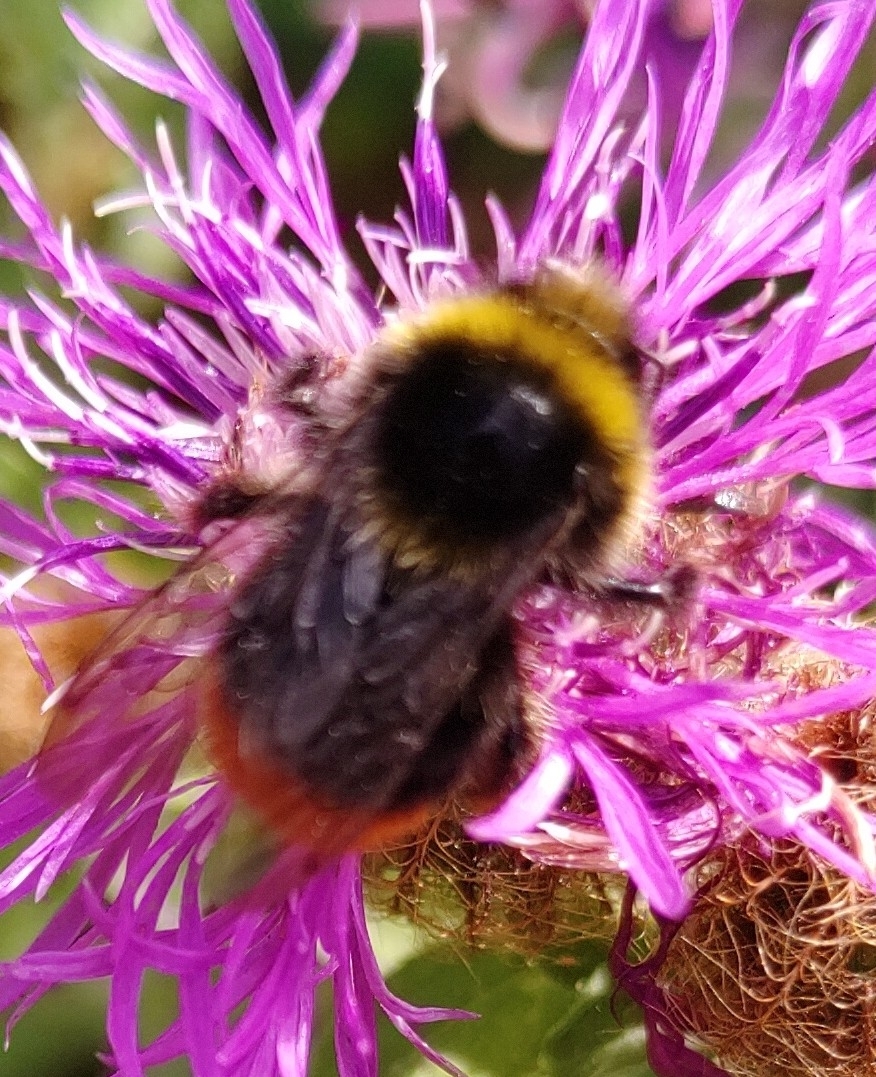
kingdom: Animalia
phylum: Arthropoda
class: Insecta
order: Hymenoptera
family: Apidae
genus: Bombus
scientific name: Bombus lapidarius
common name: Large red-tailed humble-bee
